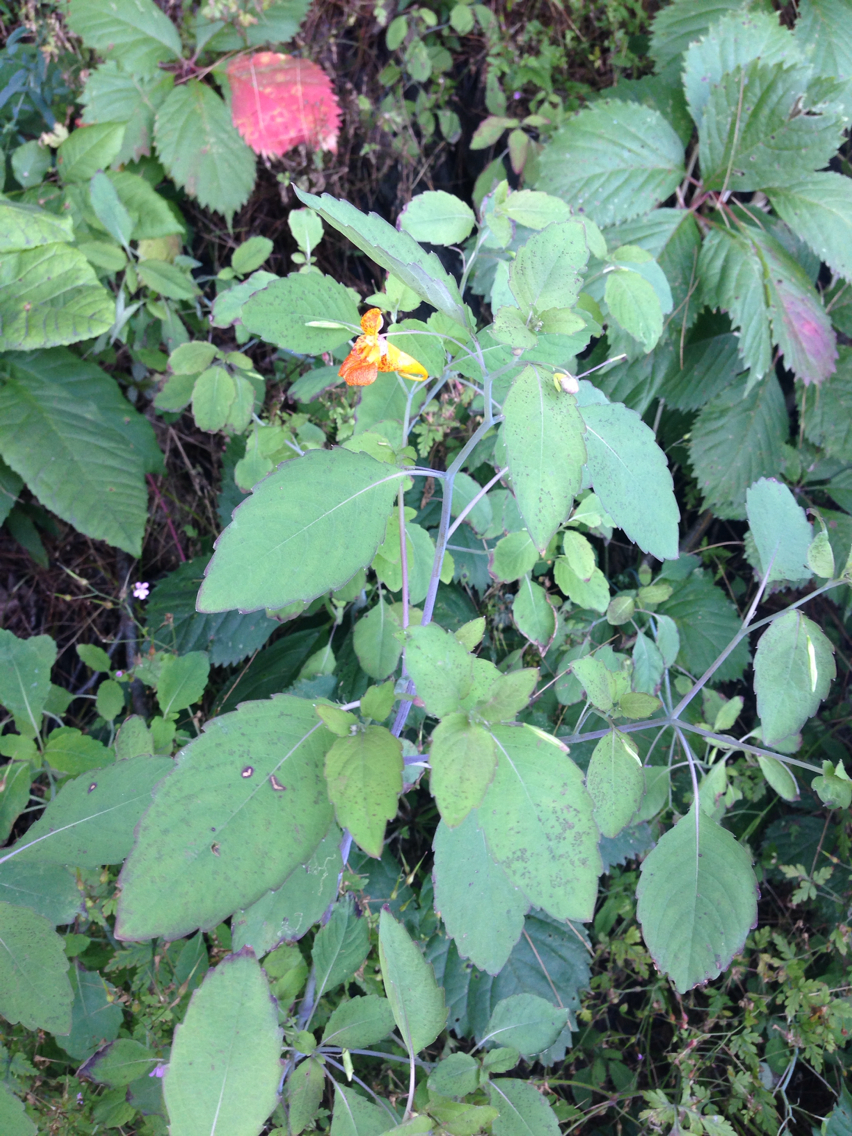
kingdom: Plantae
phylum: Tracheophyta
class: Magnoliopsida
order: Ericales
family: Balsaminaceae
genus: Impatiens
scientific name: Impatiens capensis
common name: Orange balsam
